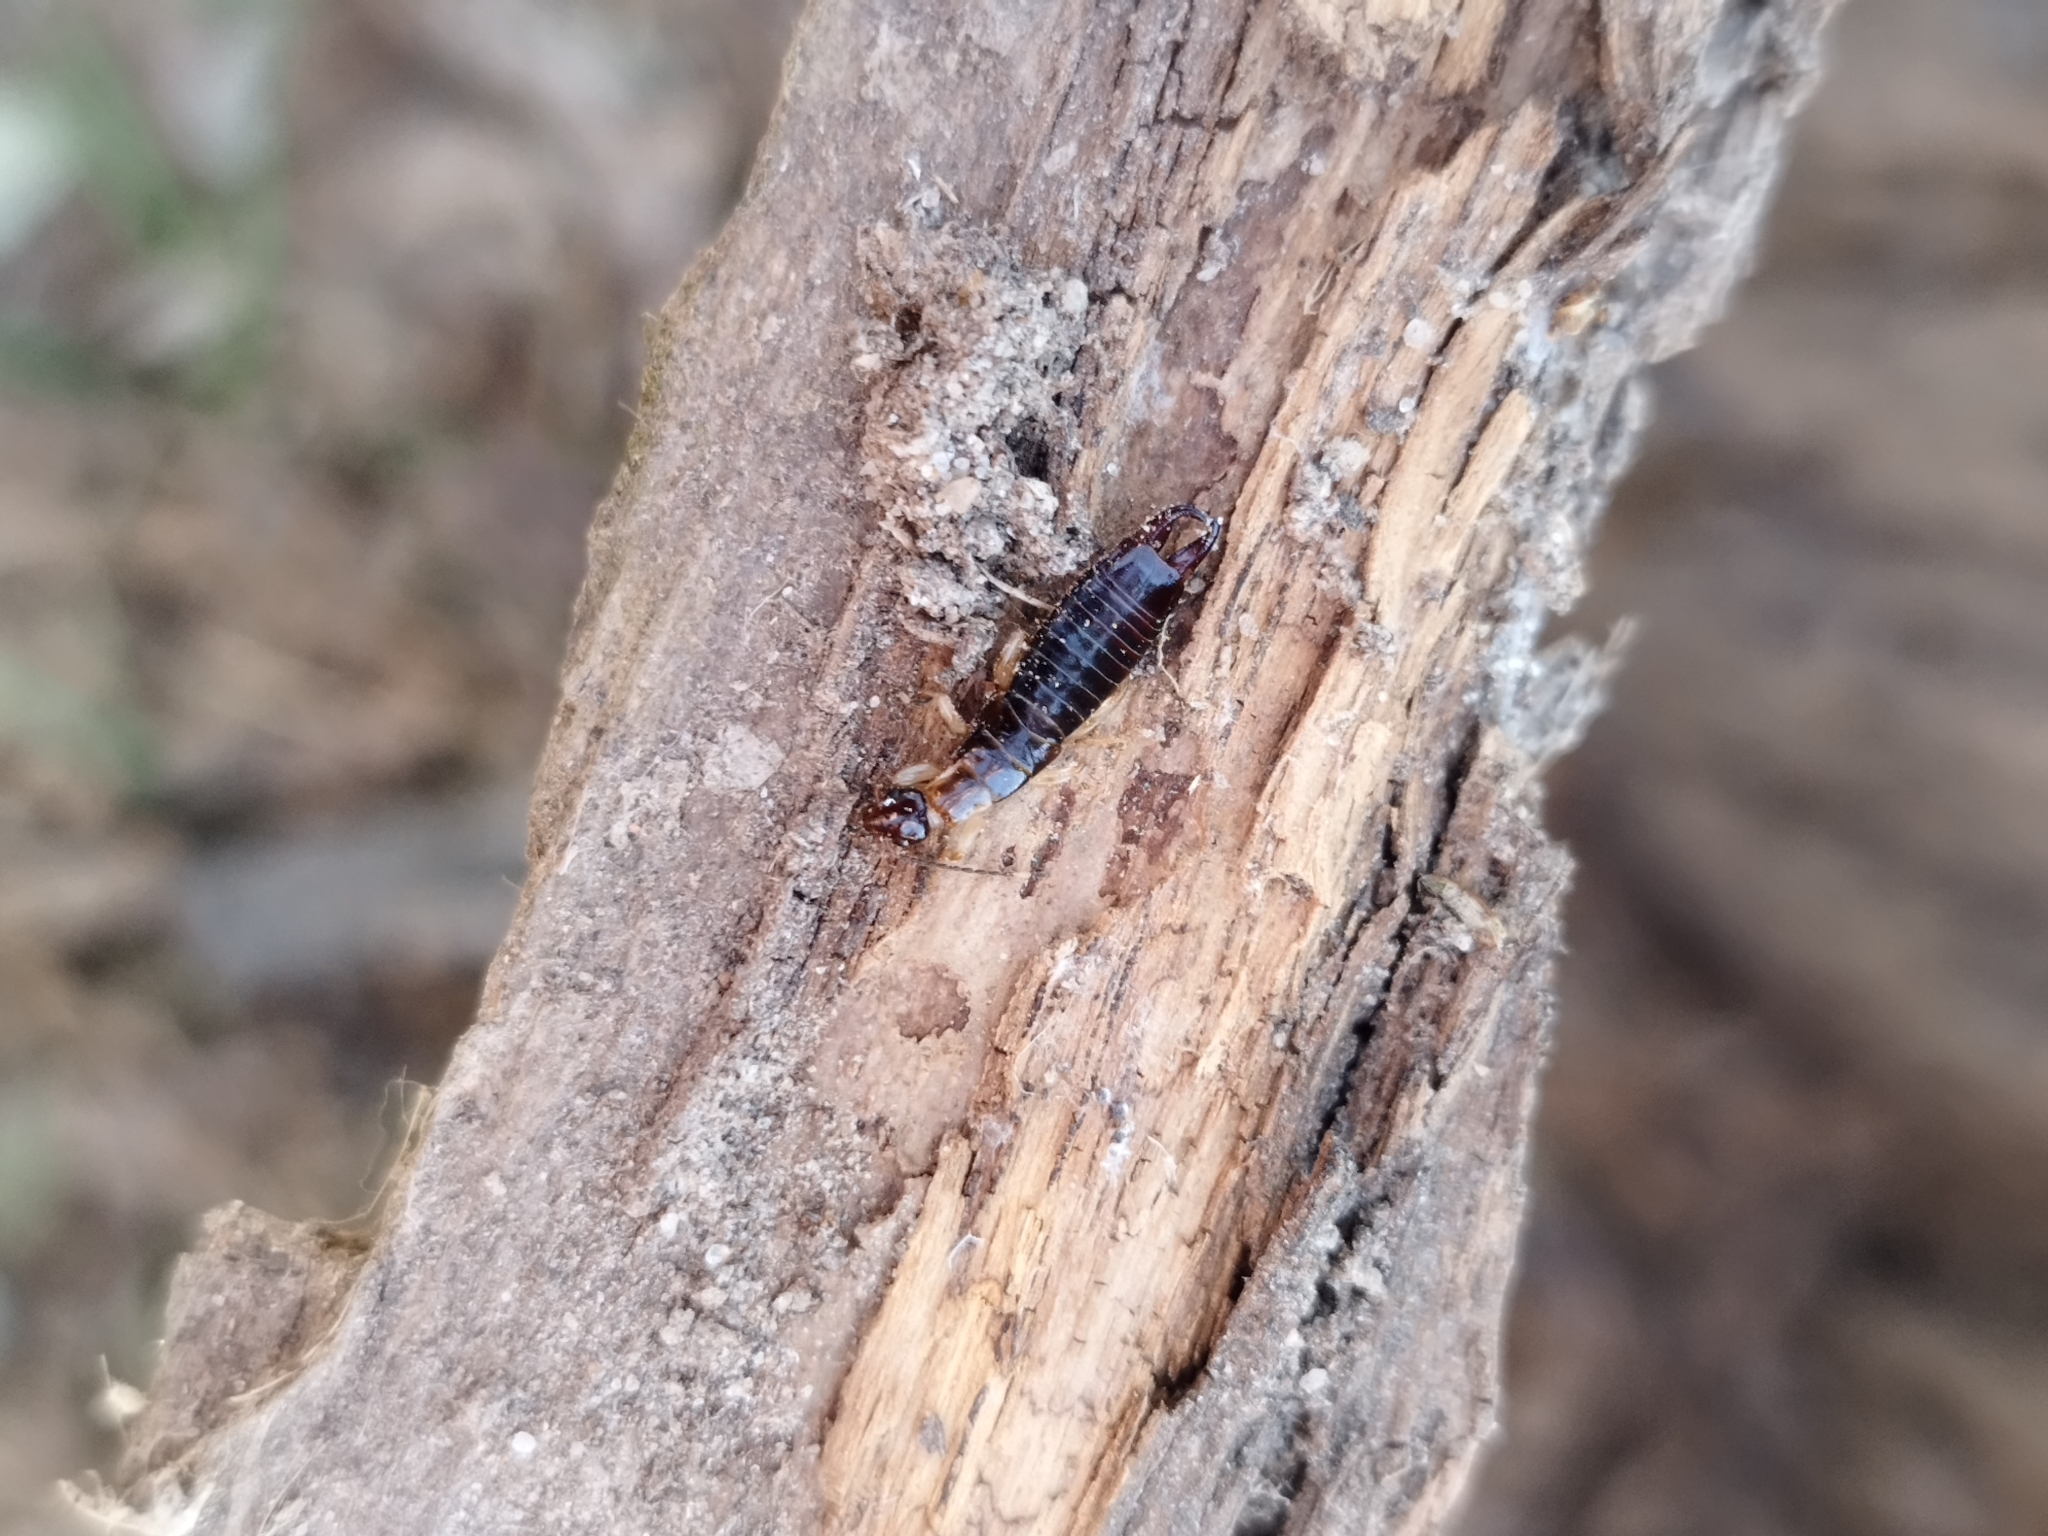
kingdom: Animalia
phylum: Arthropoda
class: Insecta
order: Dermaptera
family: Anisolabididae
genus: Euborellia
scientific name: Euborellia annulipes
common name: Ringlegged earwig
